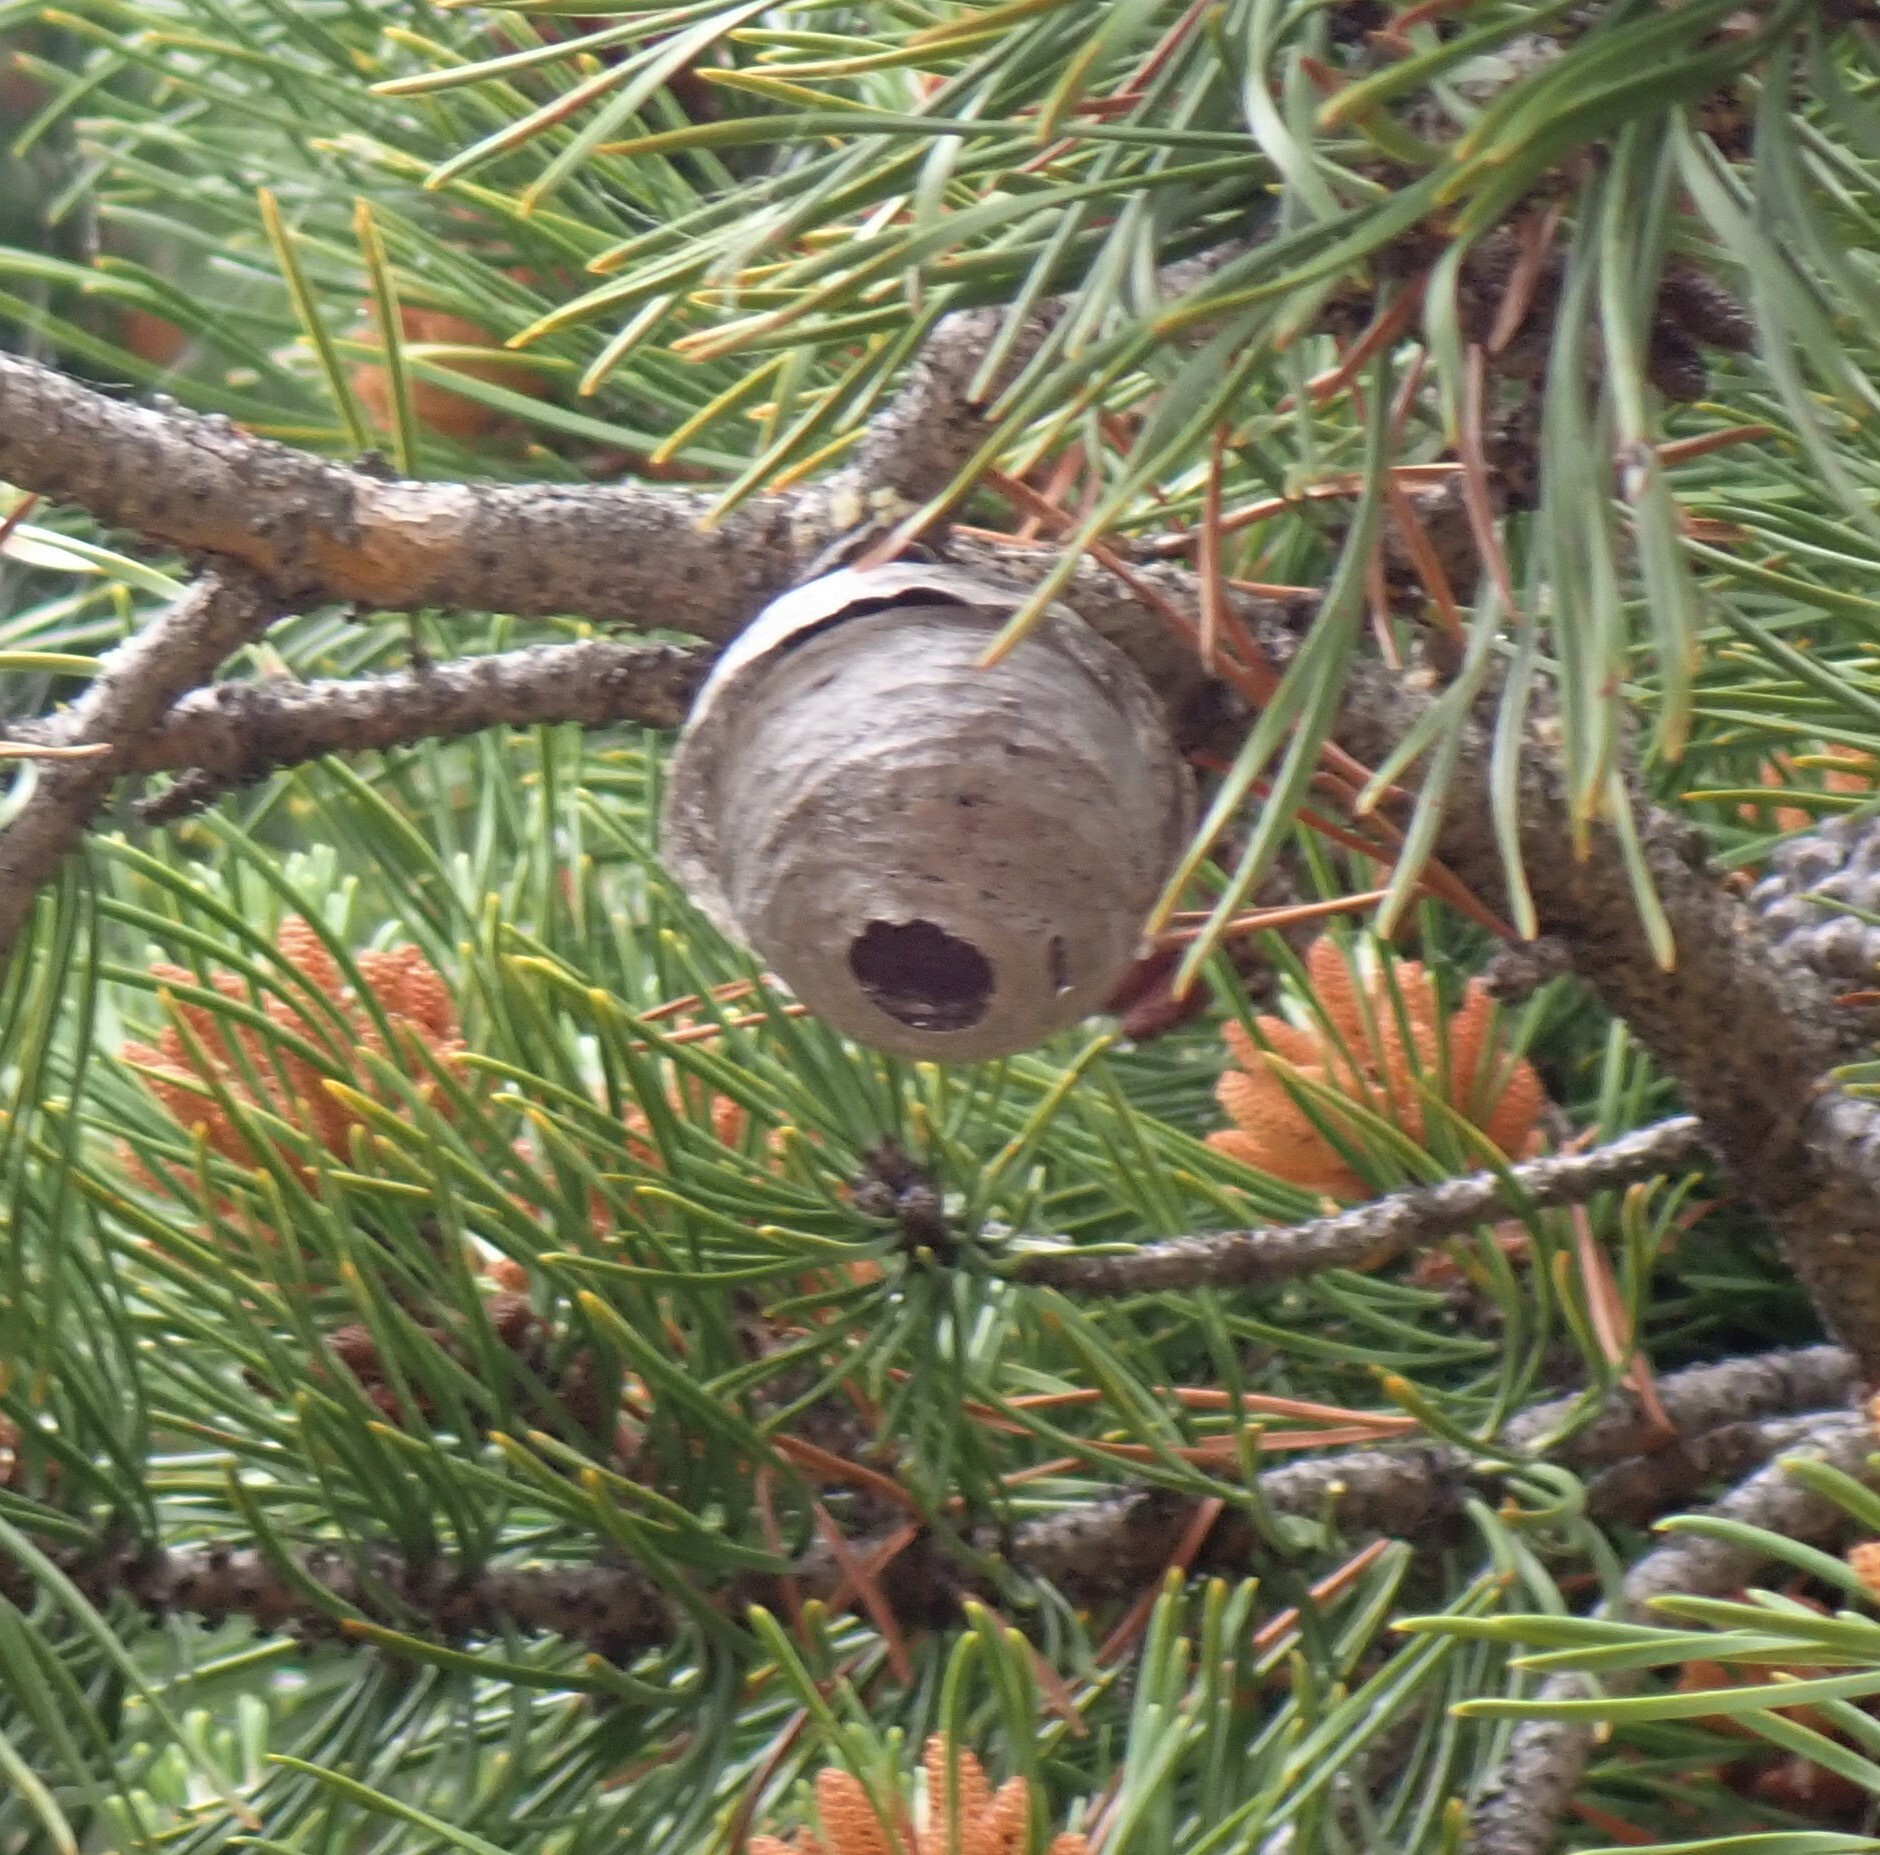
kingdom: Animalia
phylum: Arthropoda
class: Insecta
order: Hymenoptera
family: Vespidae
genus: Dolichovespula
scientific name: Dolichovespula
